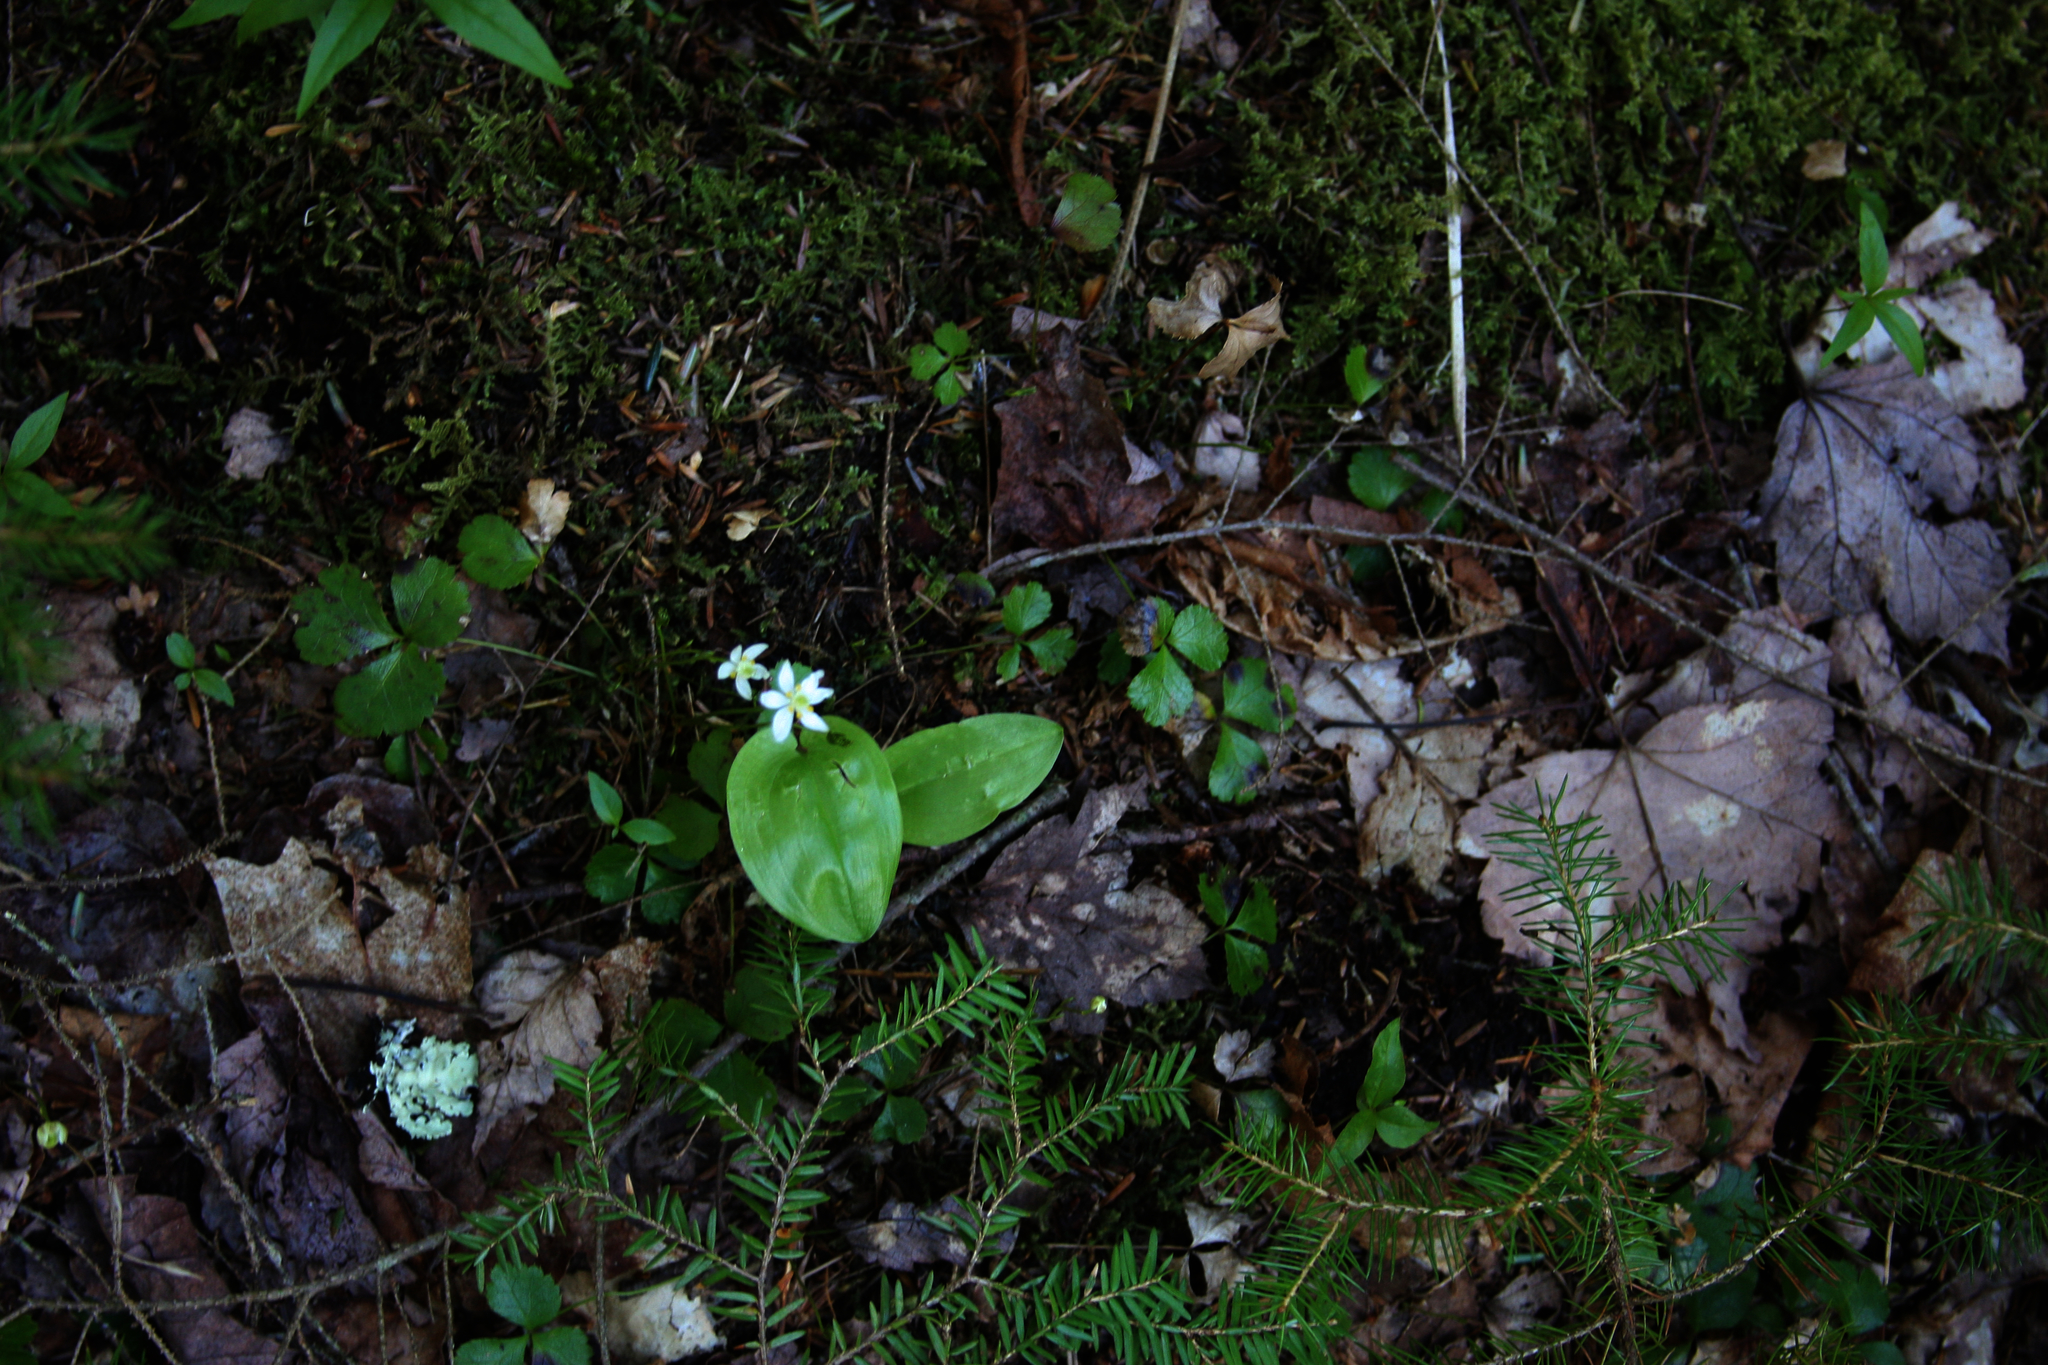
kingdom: Plantae
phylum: Tracheophyta
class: Magnoliopsida
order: Ranunculales
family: Ranunculaceae
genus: Coptis
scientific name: Coptis trifolia
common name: Canker-root
